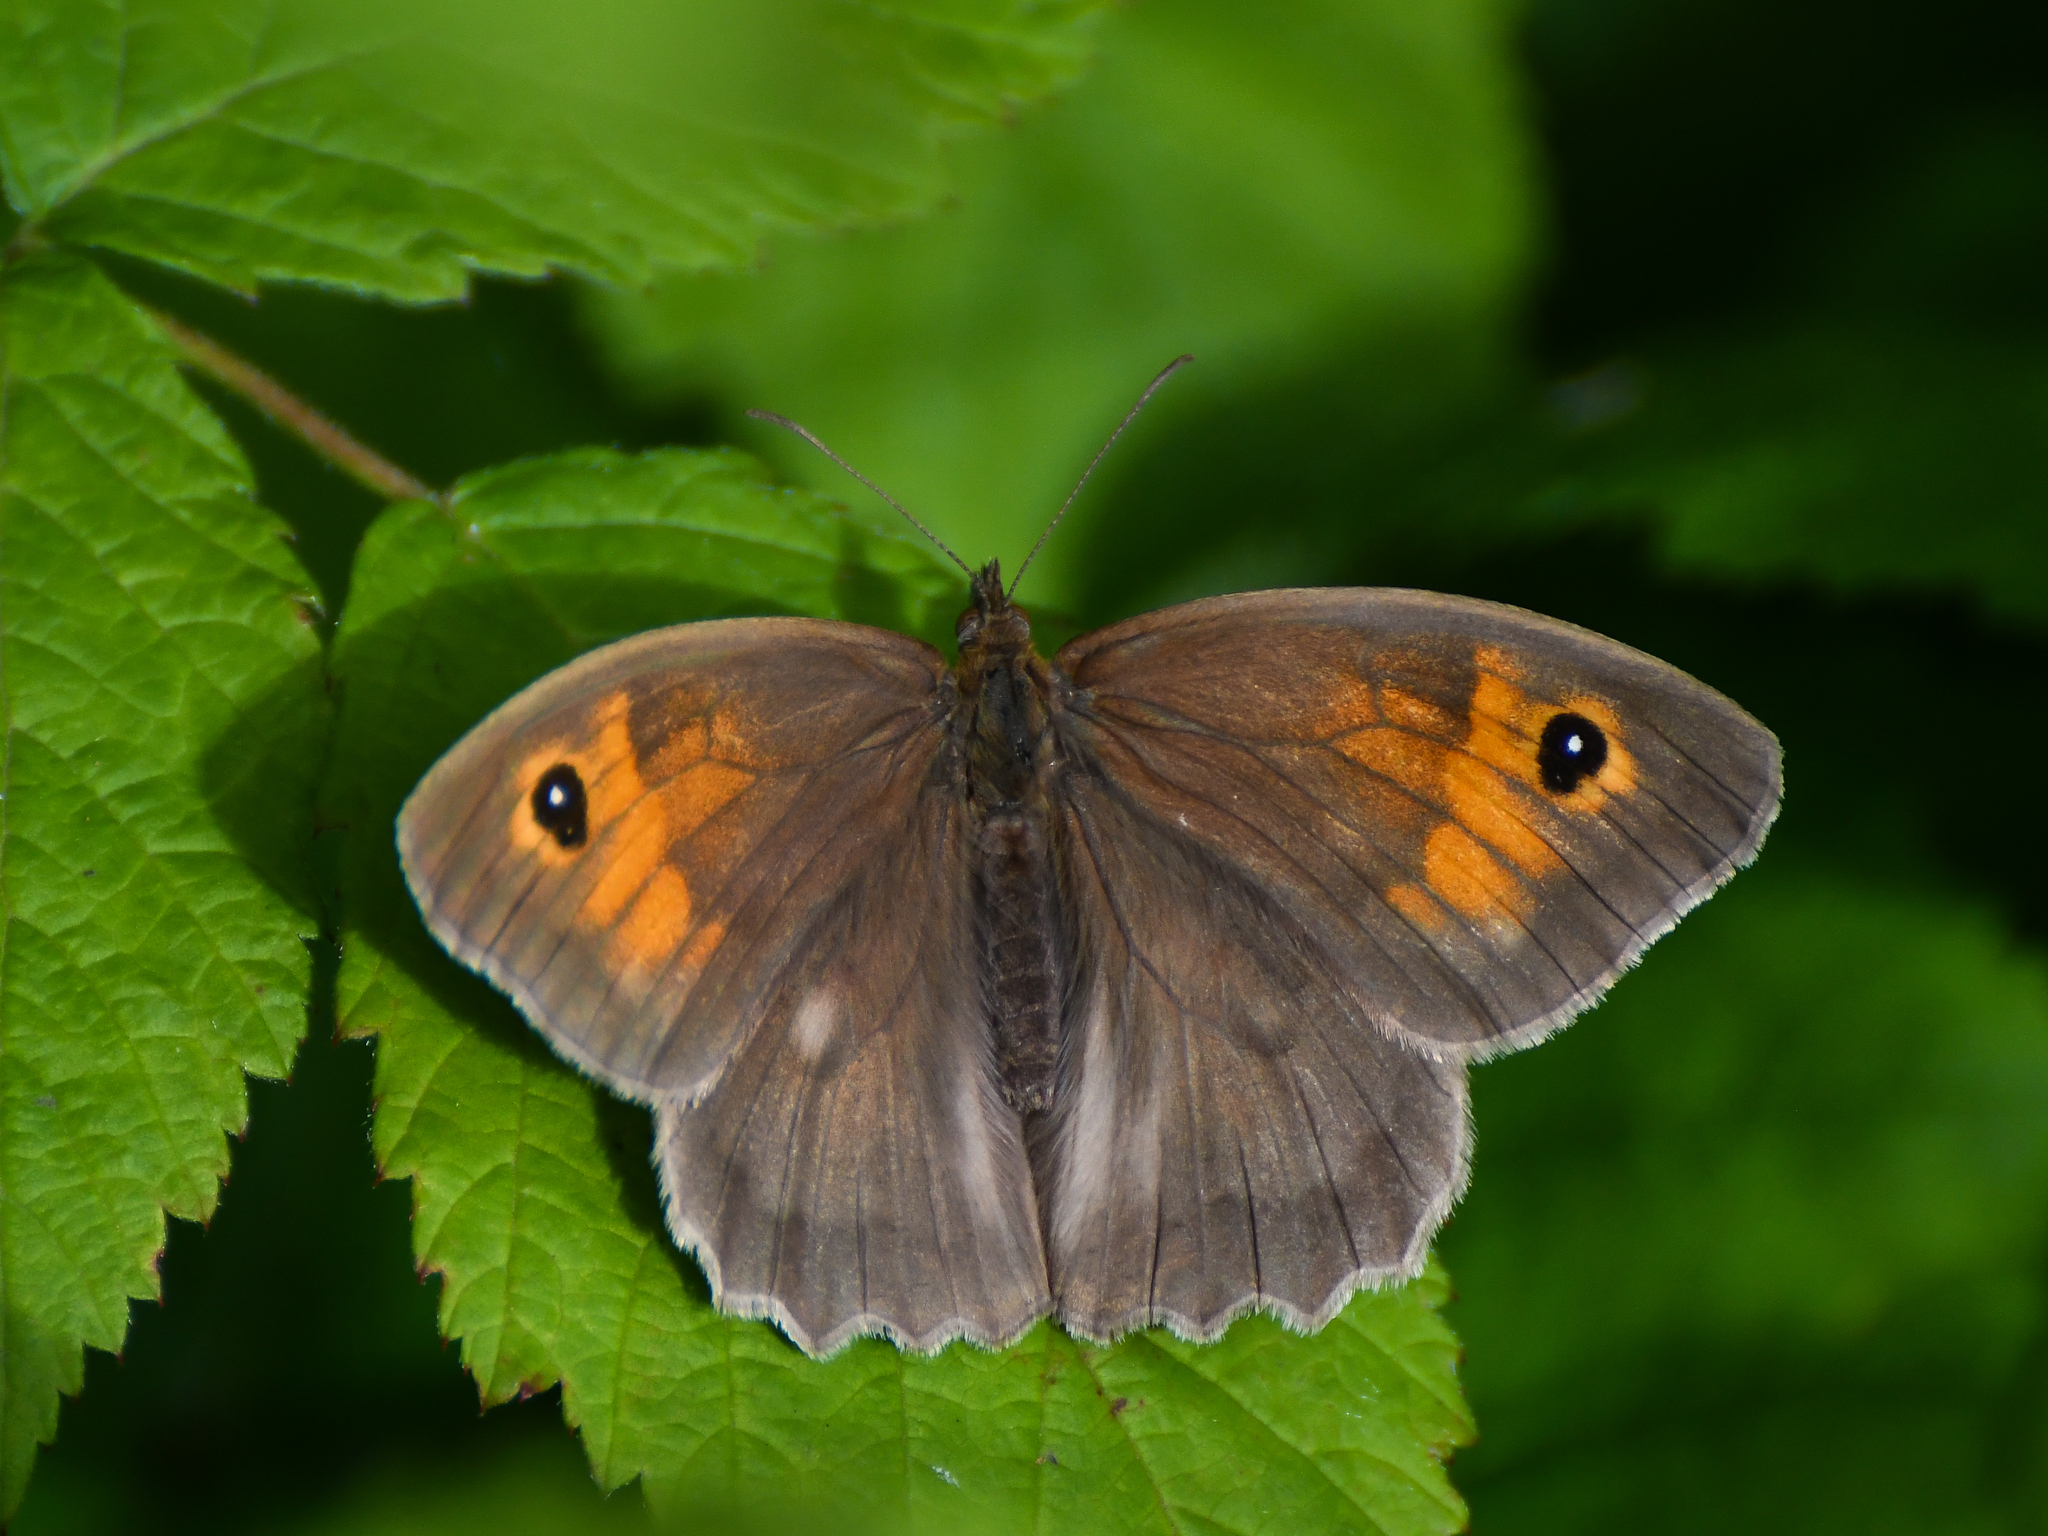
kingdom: Animalia
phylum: Arthropoda
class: Insecta
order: Lepidoptera
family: Nymphalidae
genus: Maniola
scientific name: Maniola jurtina
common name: Meadow brown
